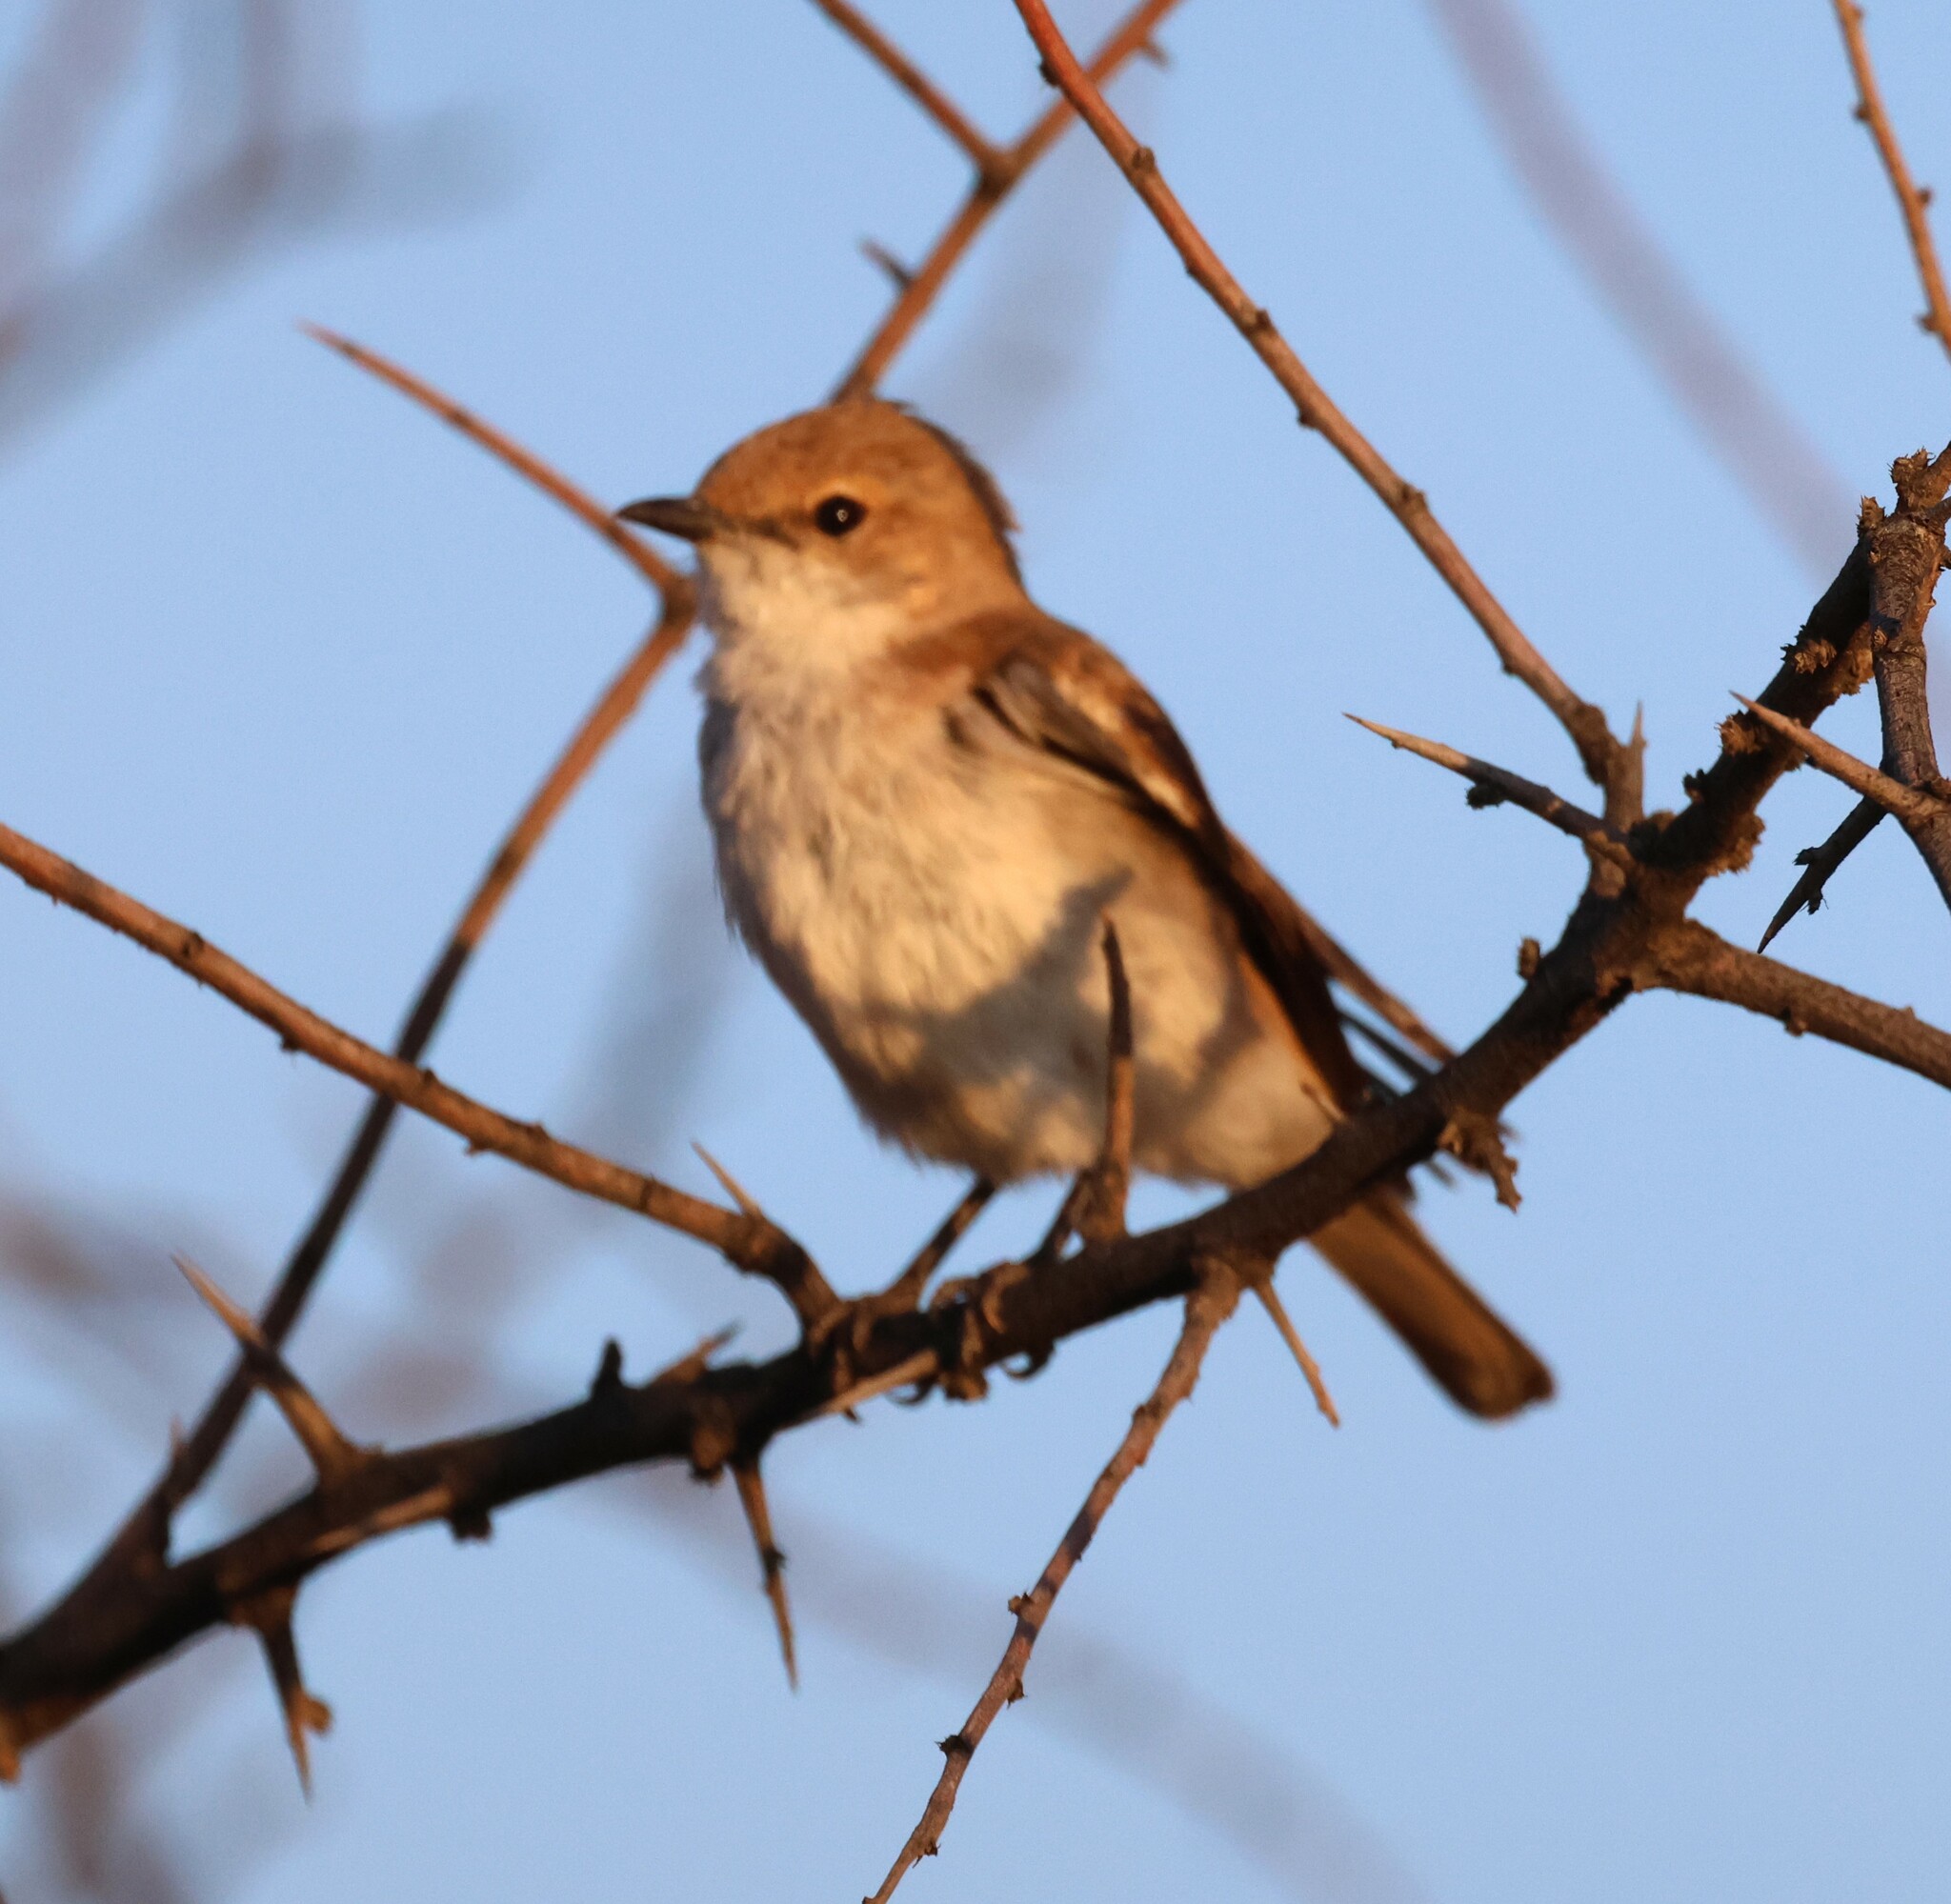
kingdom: Animalia
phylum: Chordata
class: Aves
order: Passeriformes
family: Muscicapidae
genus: Bradornis
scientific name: Bradornis mariquensis
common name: Marico flycatcher
